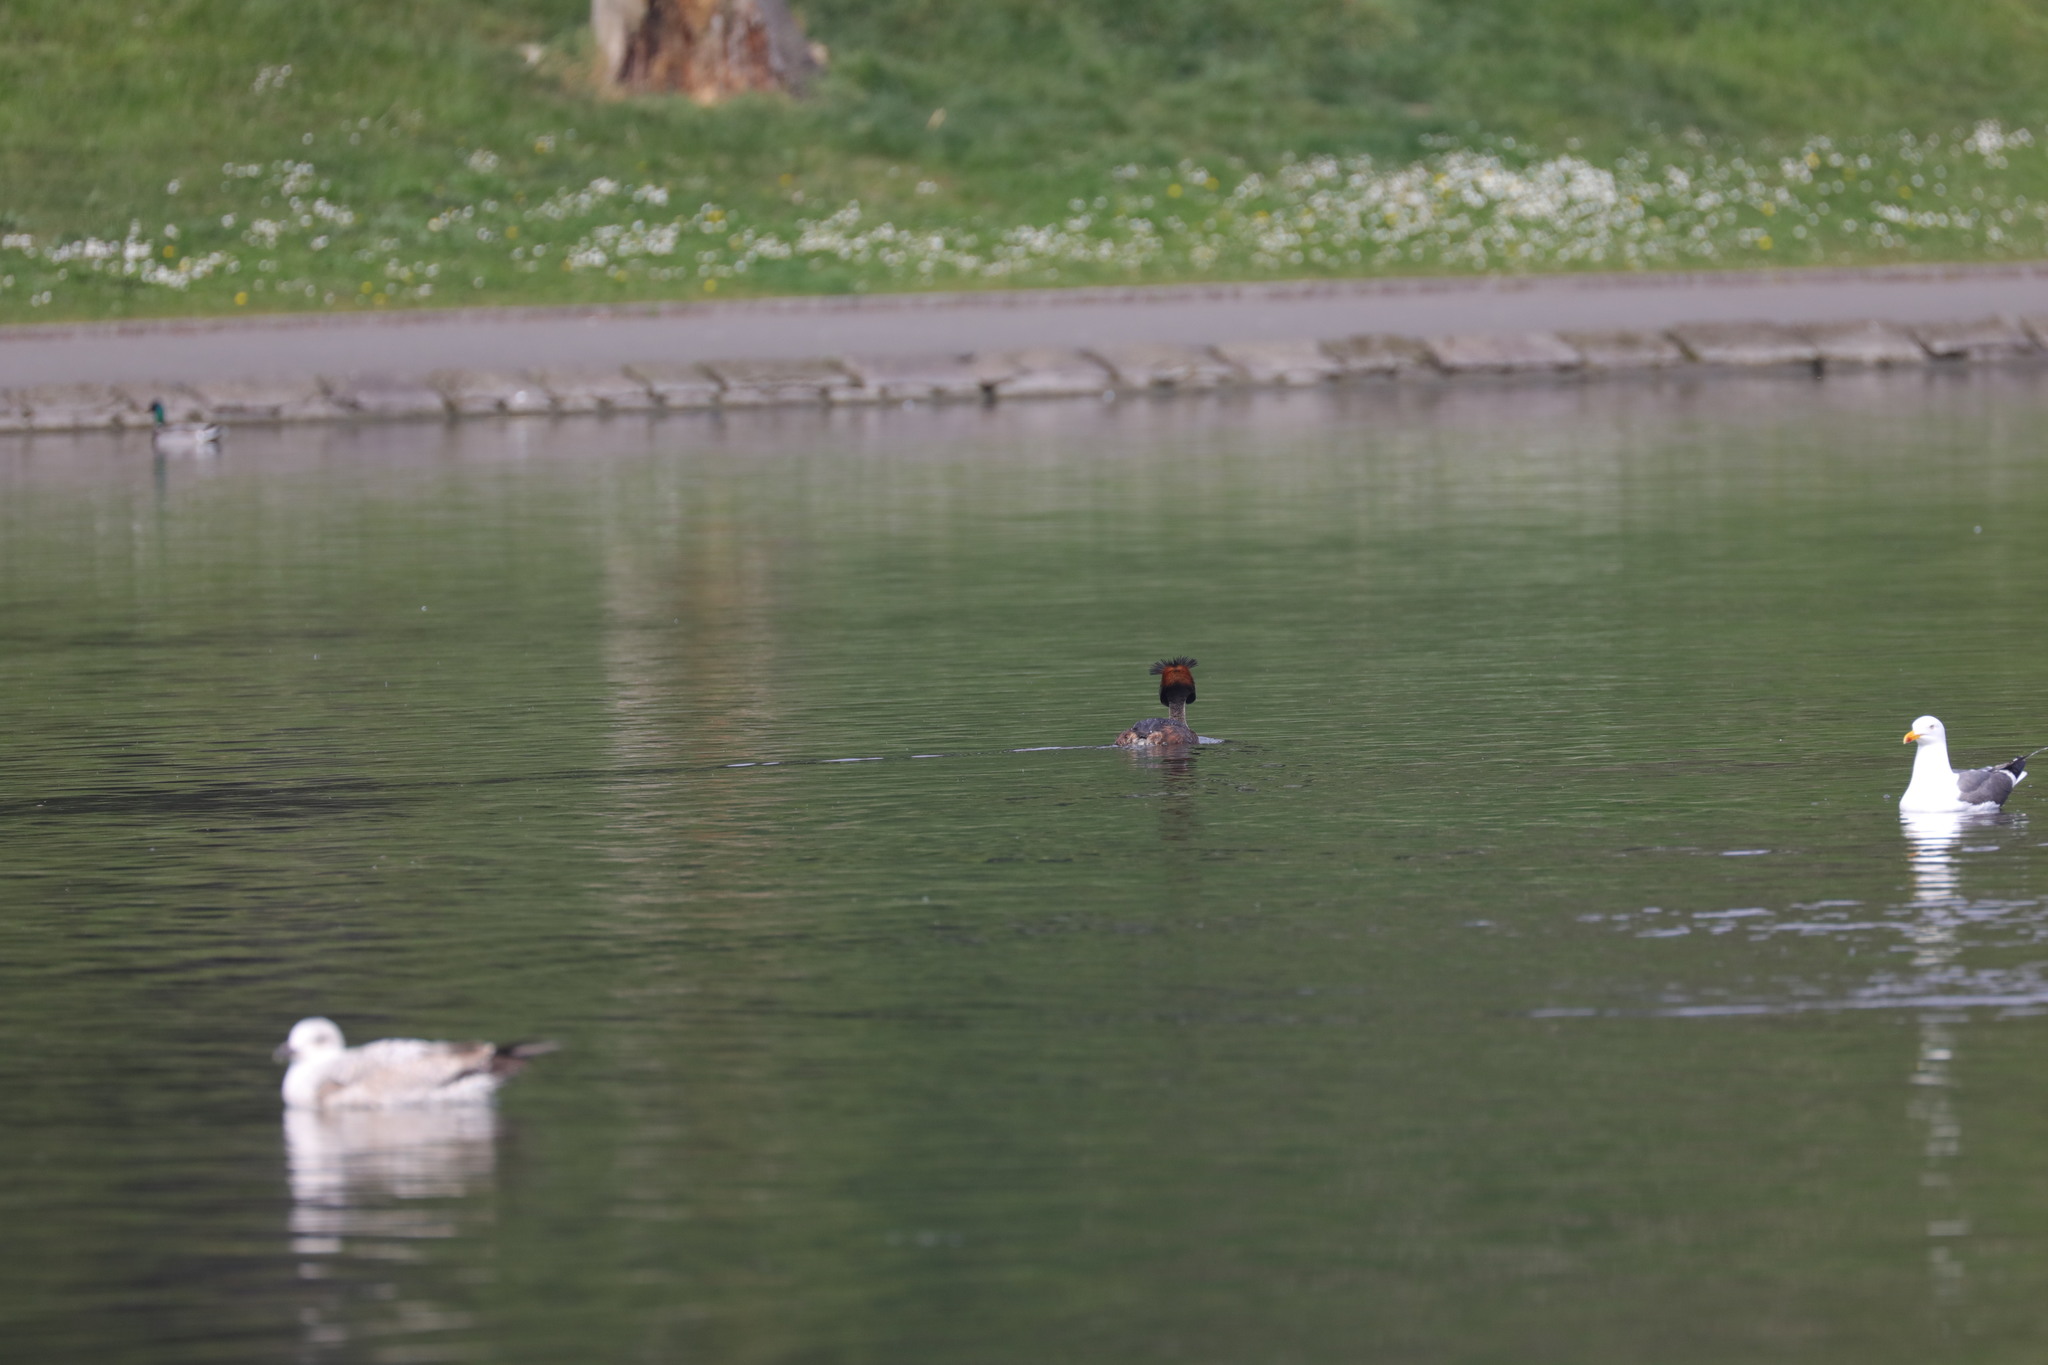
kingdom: Animalia
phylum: Chordata
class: Aves
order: Podicipediformes
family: Podicipedidae
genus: Podiceps
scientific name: Podiceps cristatus
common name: Great crested grebe
